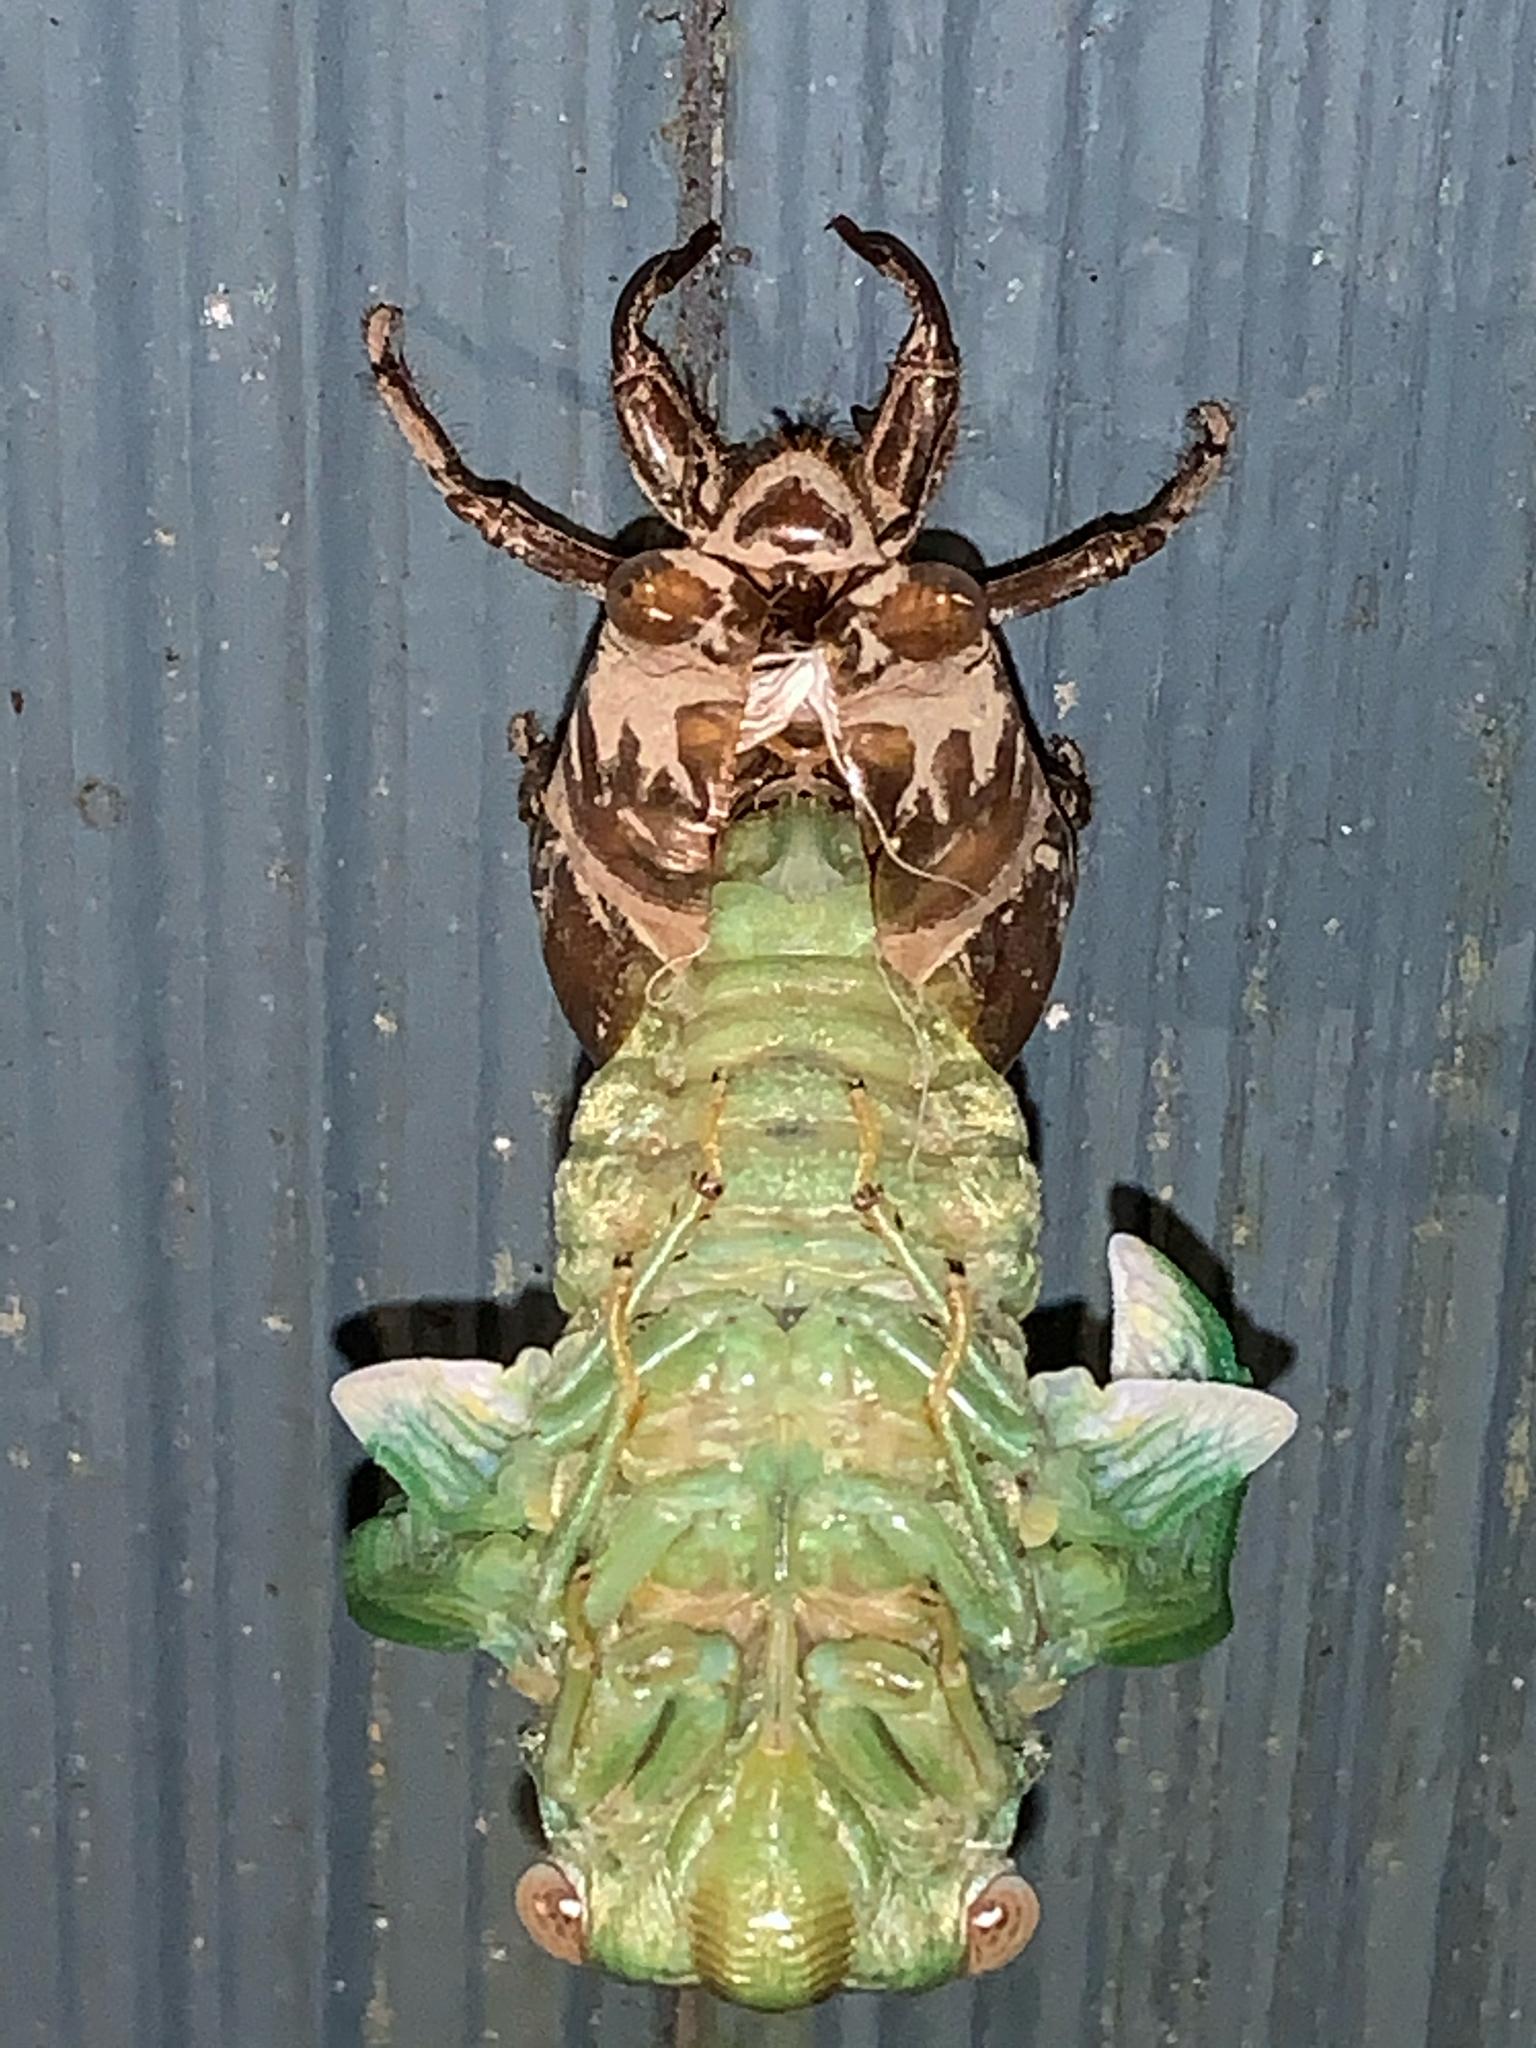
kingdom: Animalia
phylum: Arthropoda
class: Insecta
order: Hemiptera
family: Cicadidae
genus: Diceroprocta
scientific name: Diceroprocta grossa
